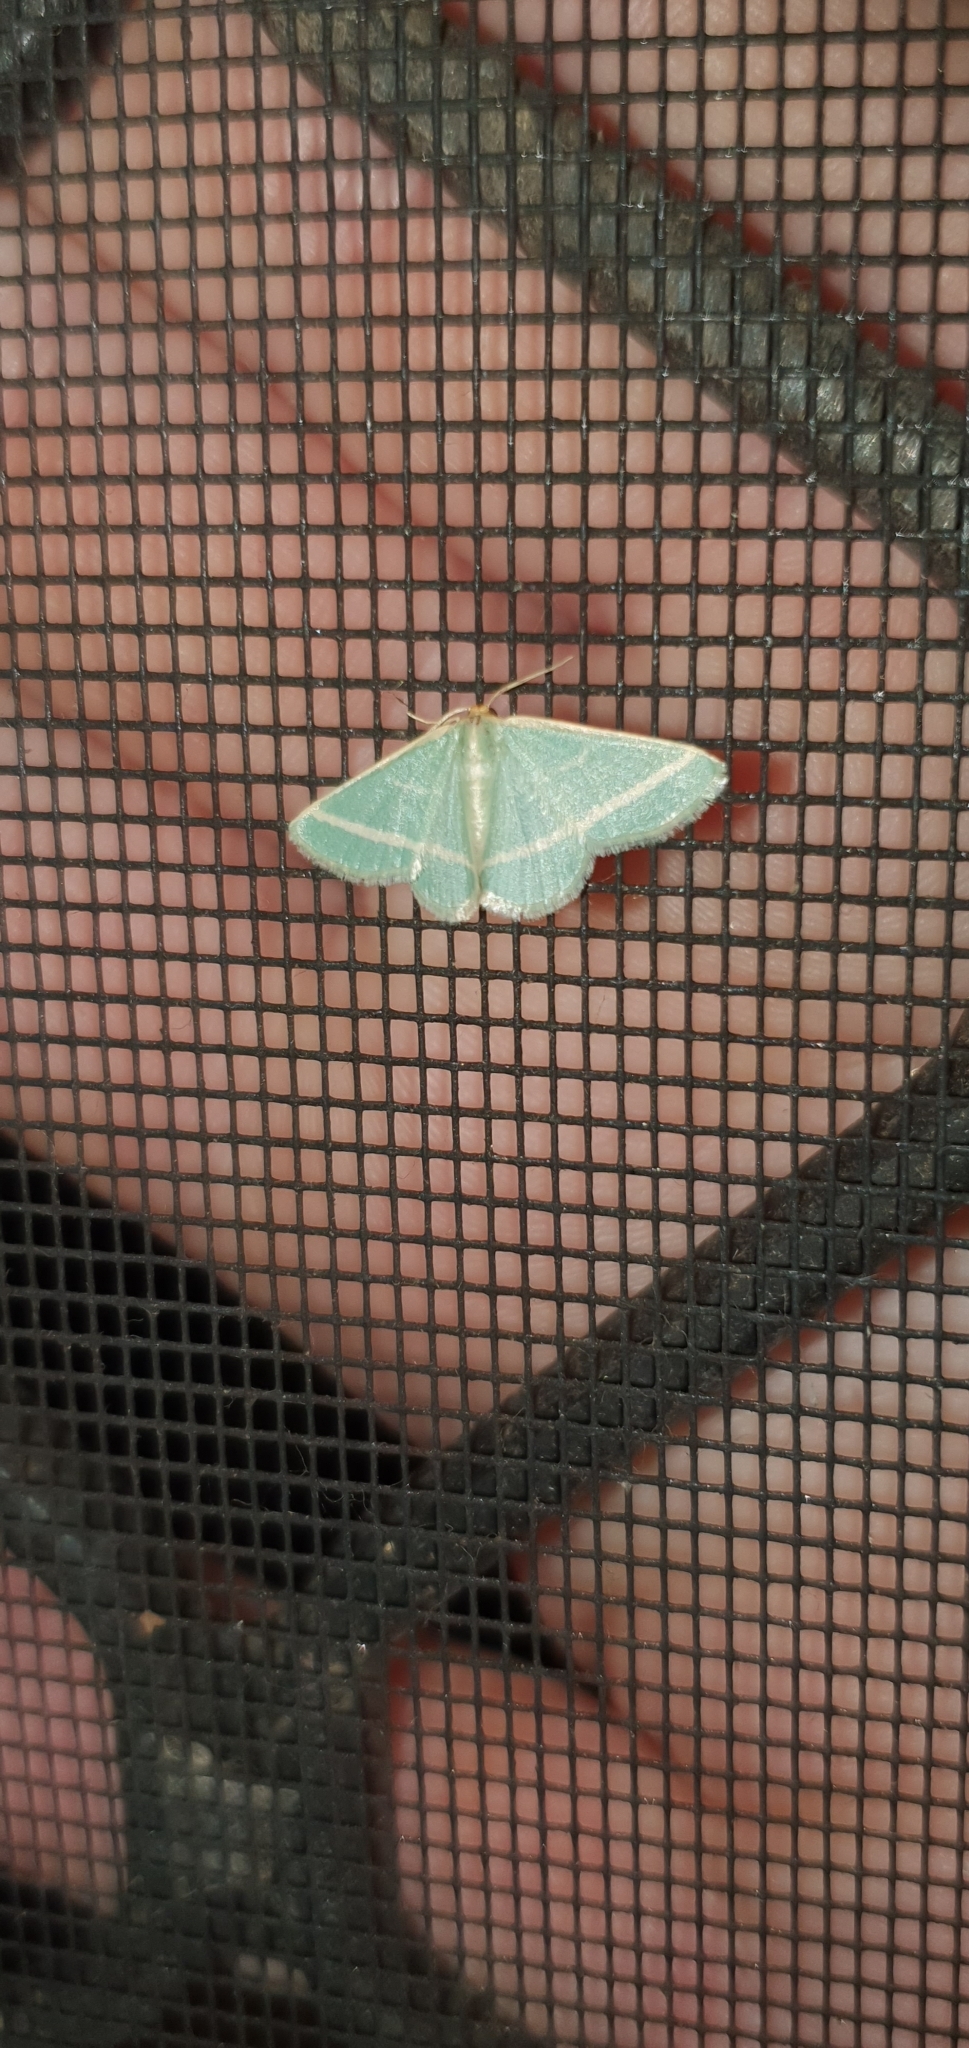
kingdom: Animalia
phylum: Arthropoda
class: Insecta
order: Lepidoptera
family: Geometridae
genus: Mixocera
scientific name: Mixocera latilineata
